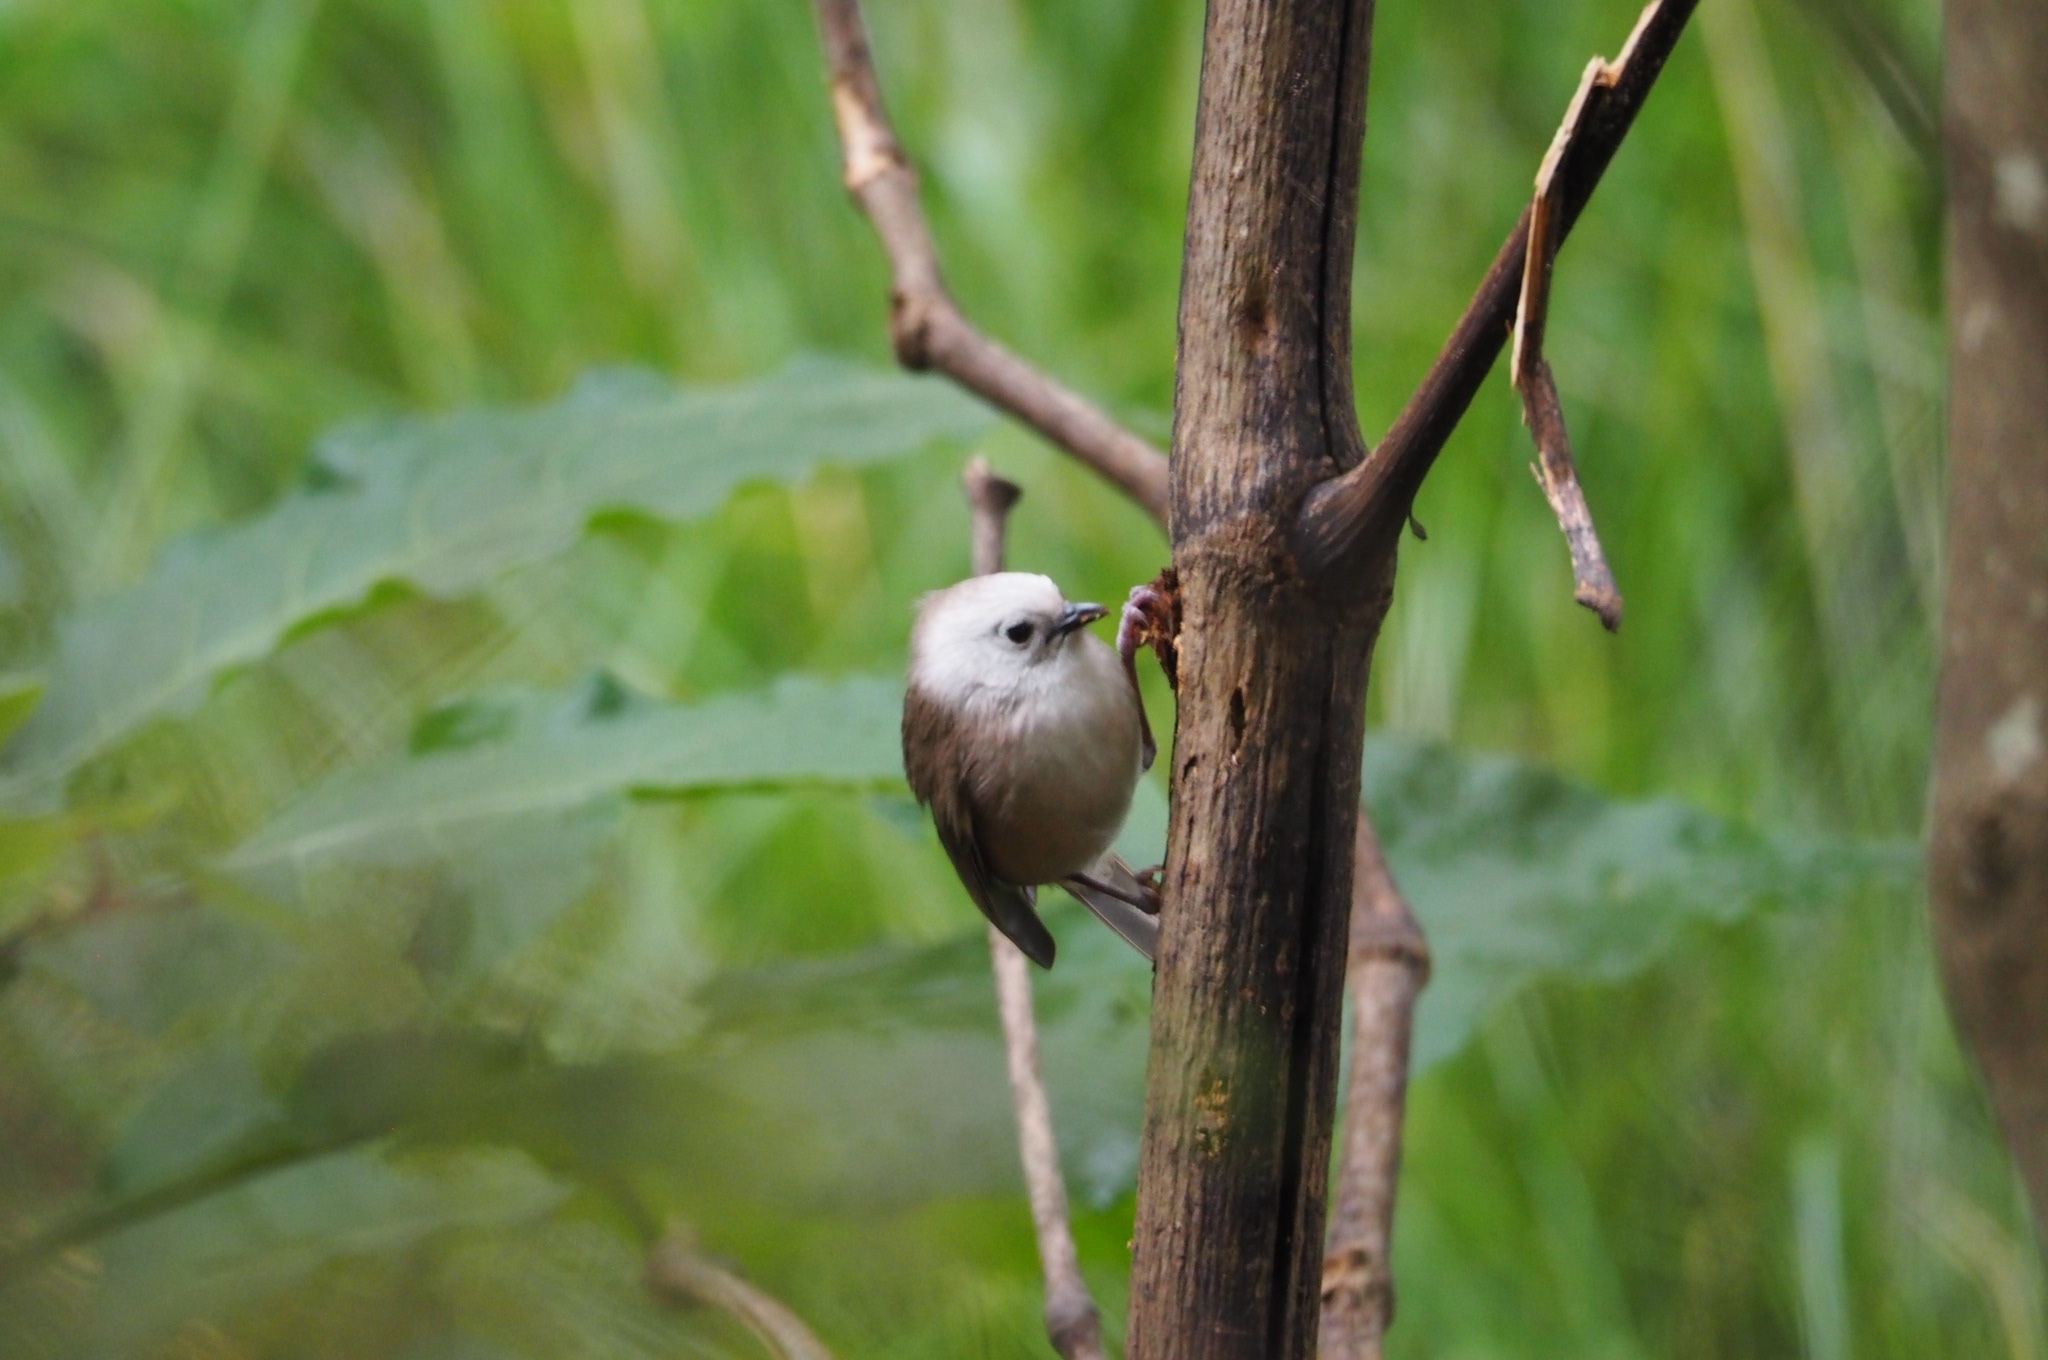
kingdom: Animalia
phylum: Chordata
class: Aves
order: Passeriformes
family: Acanthizidae
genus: Mohoua
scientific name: Mohoua albicilla
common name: Whitehead
